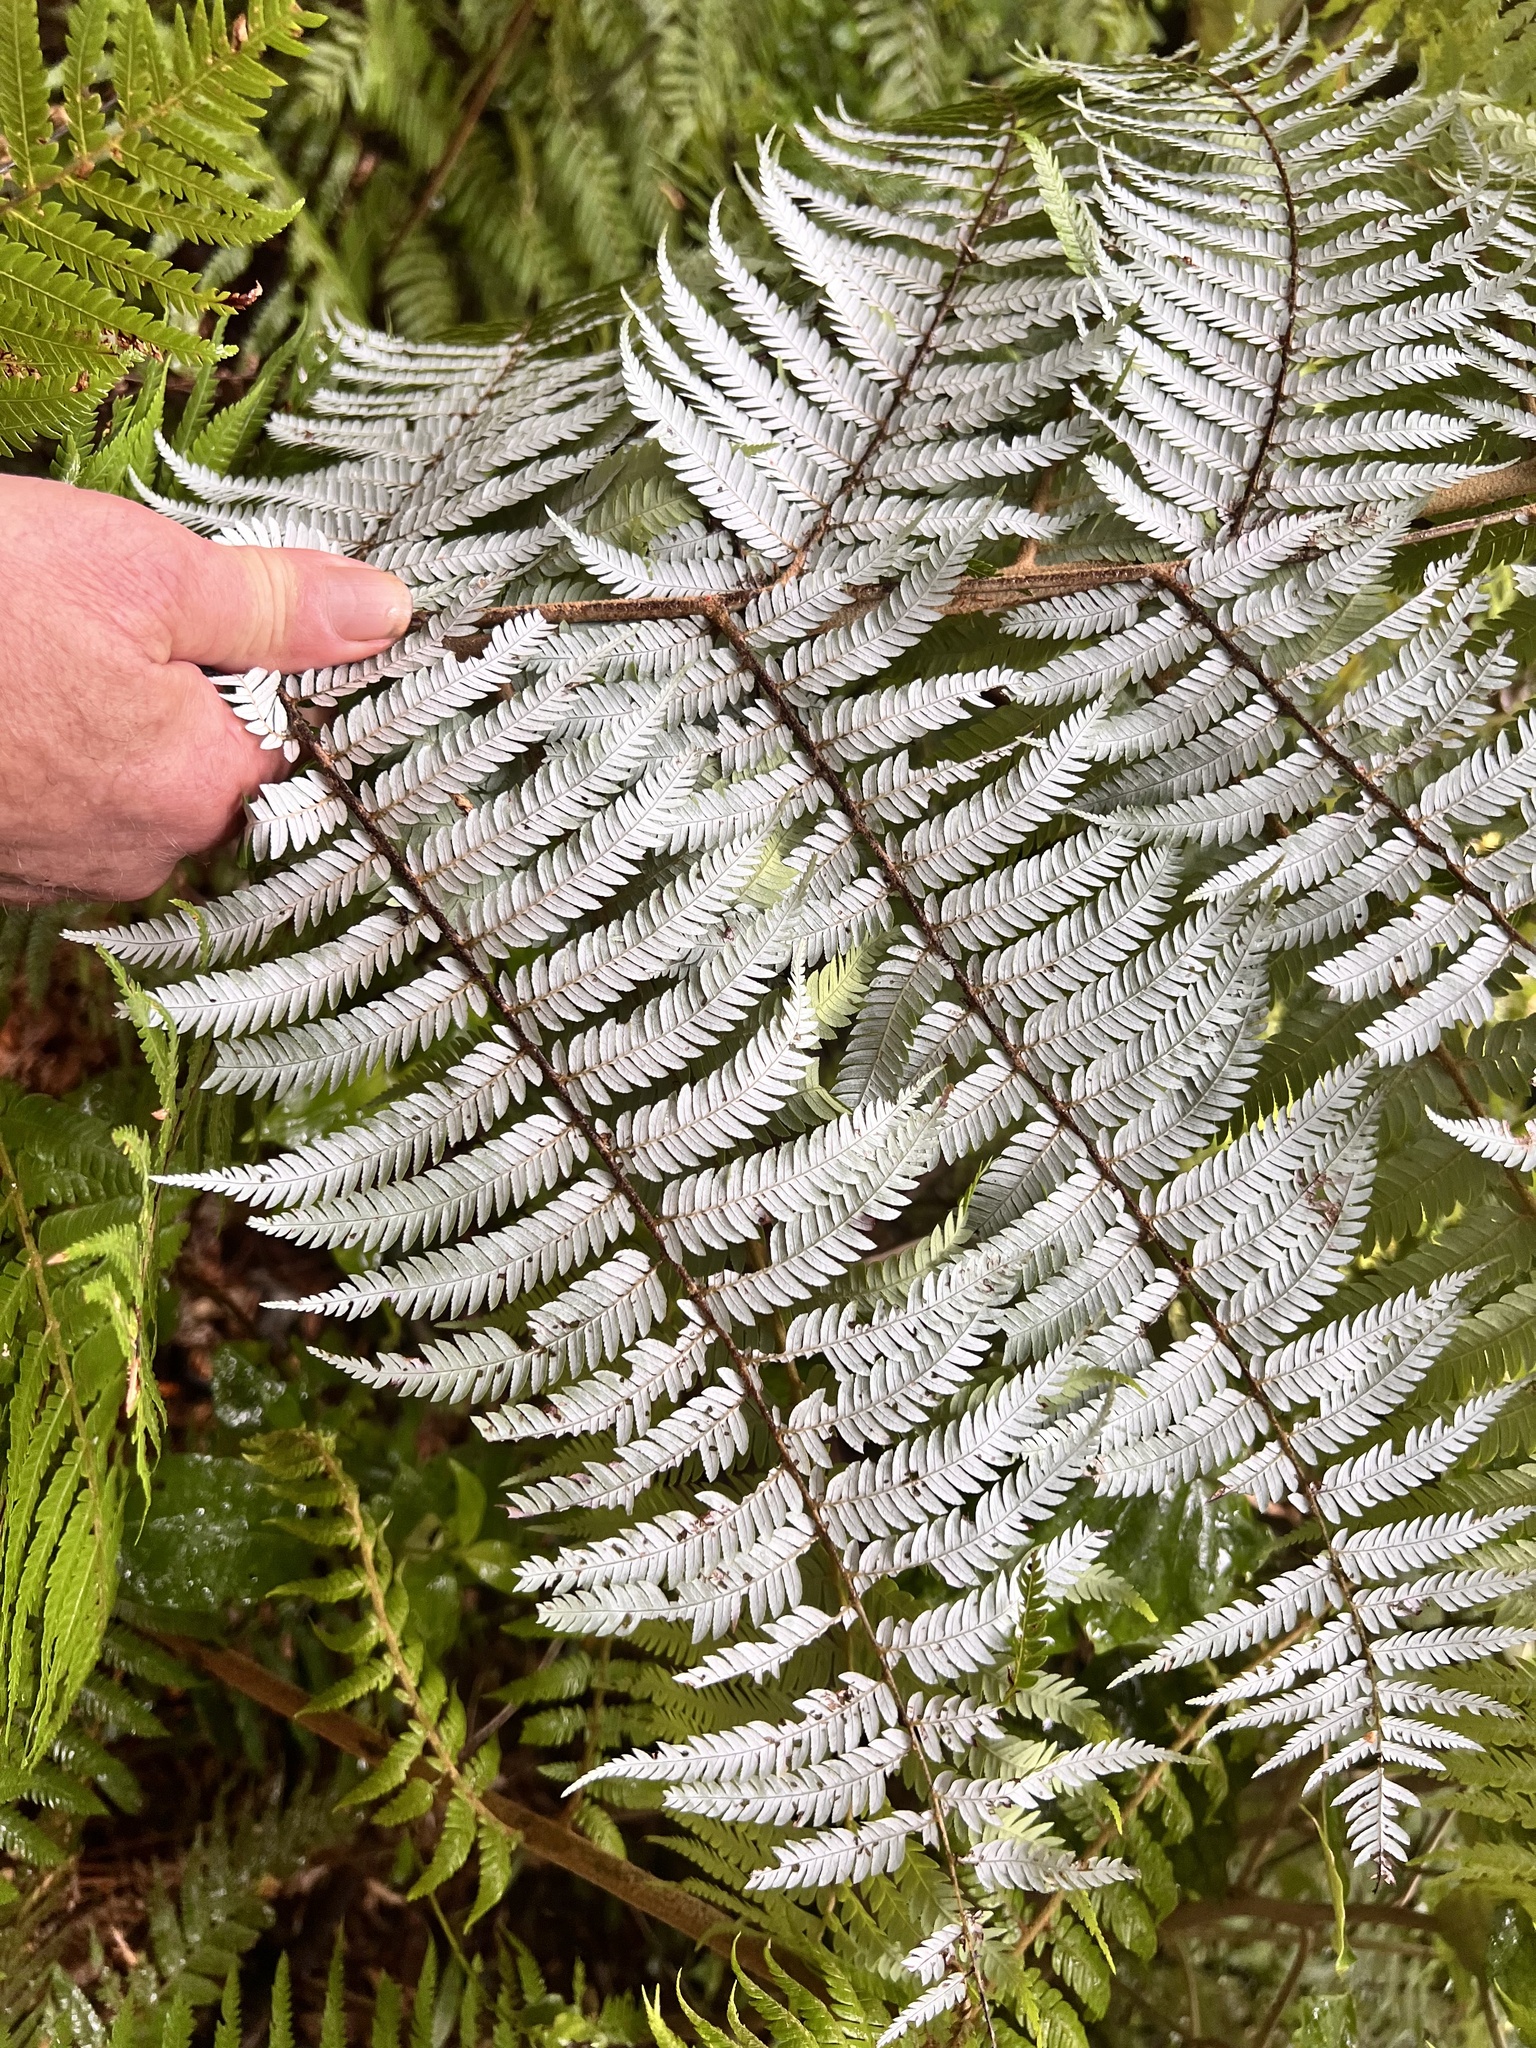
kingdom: Plantae
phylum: Tracheophyta
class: Polypodiopsida
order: Cyatheales
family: Cyatheaceae
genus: Alsophila
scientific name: Alsophila dealbata
